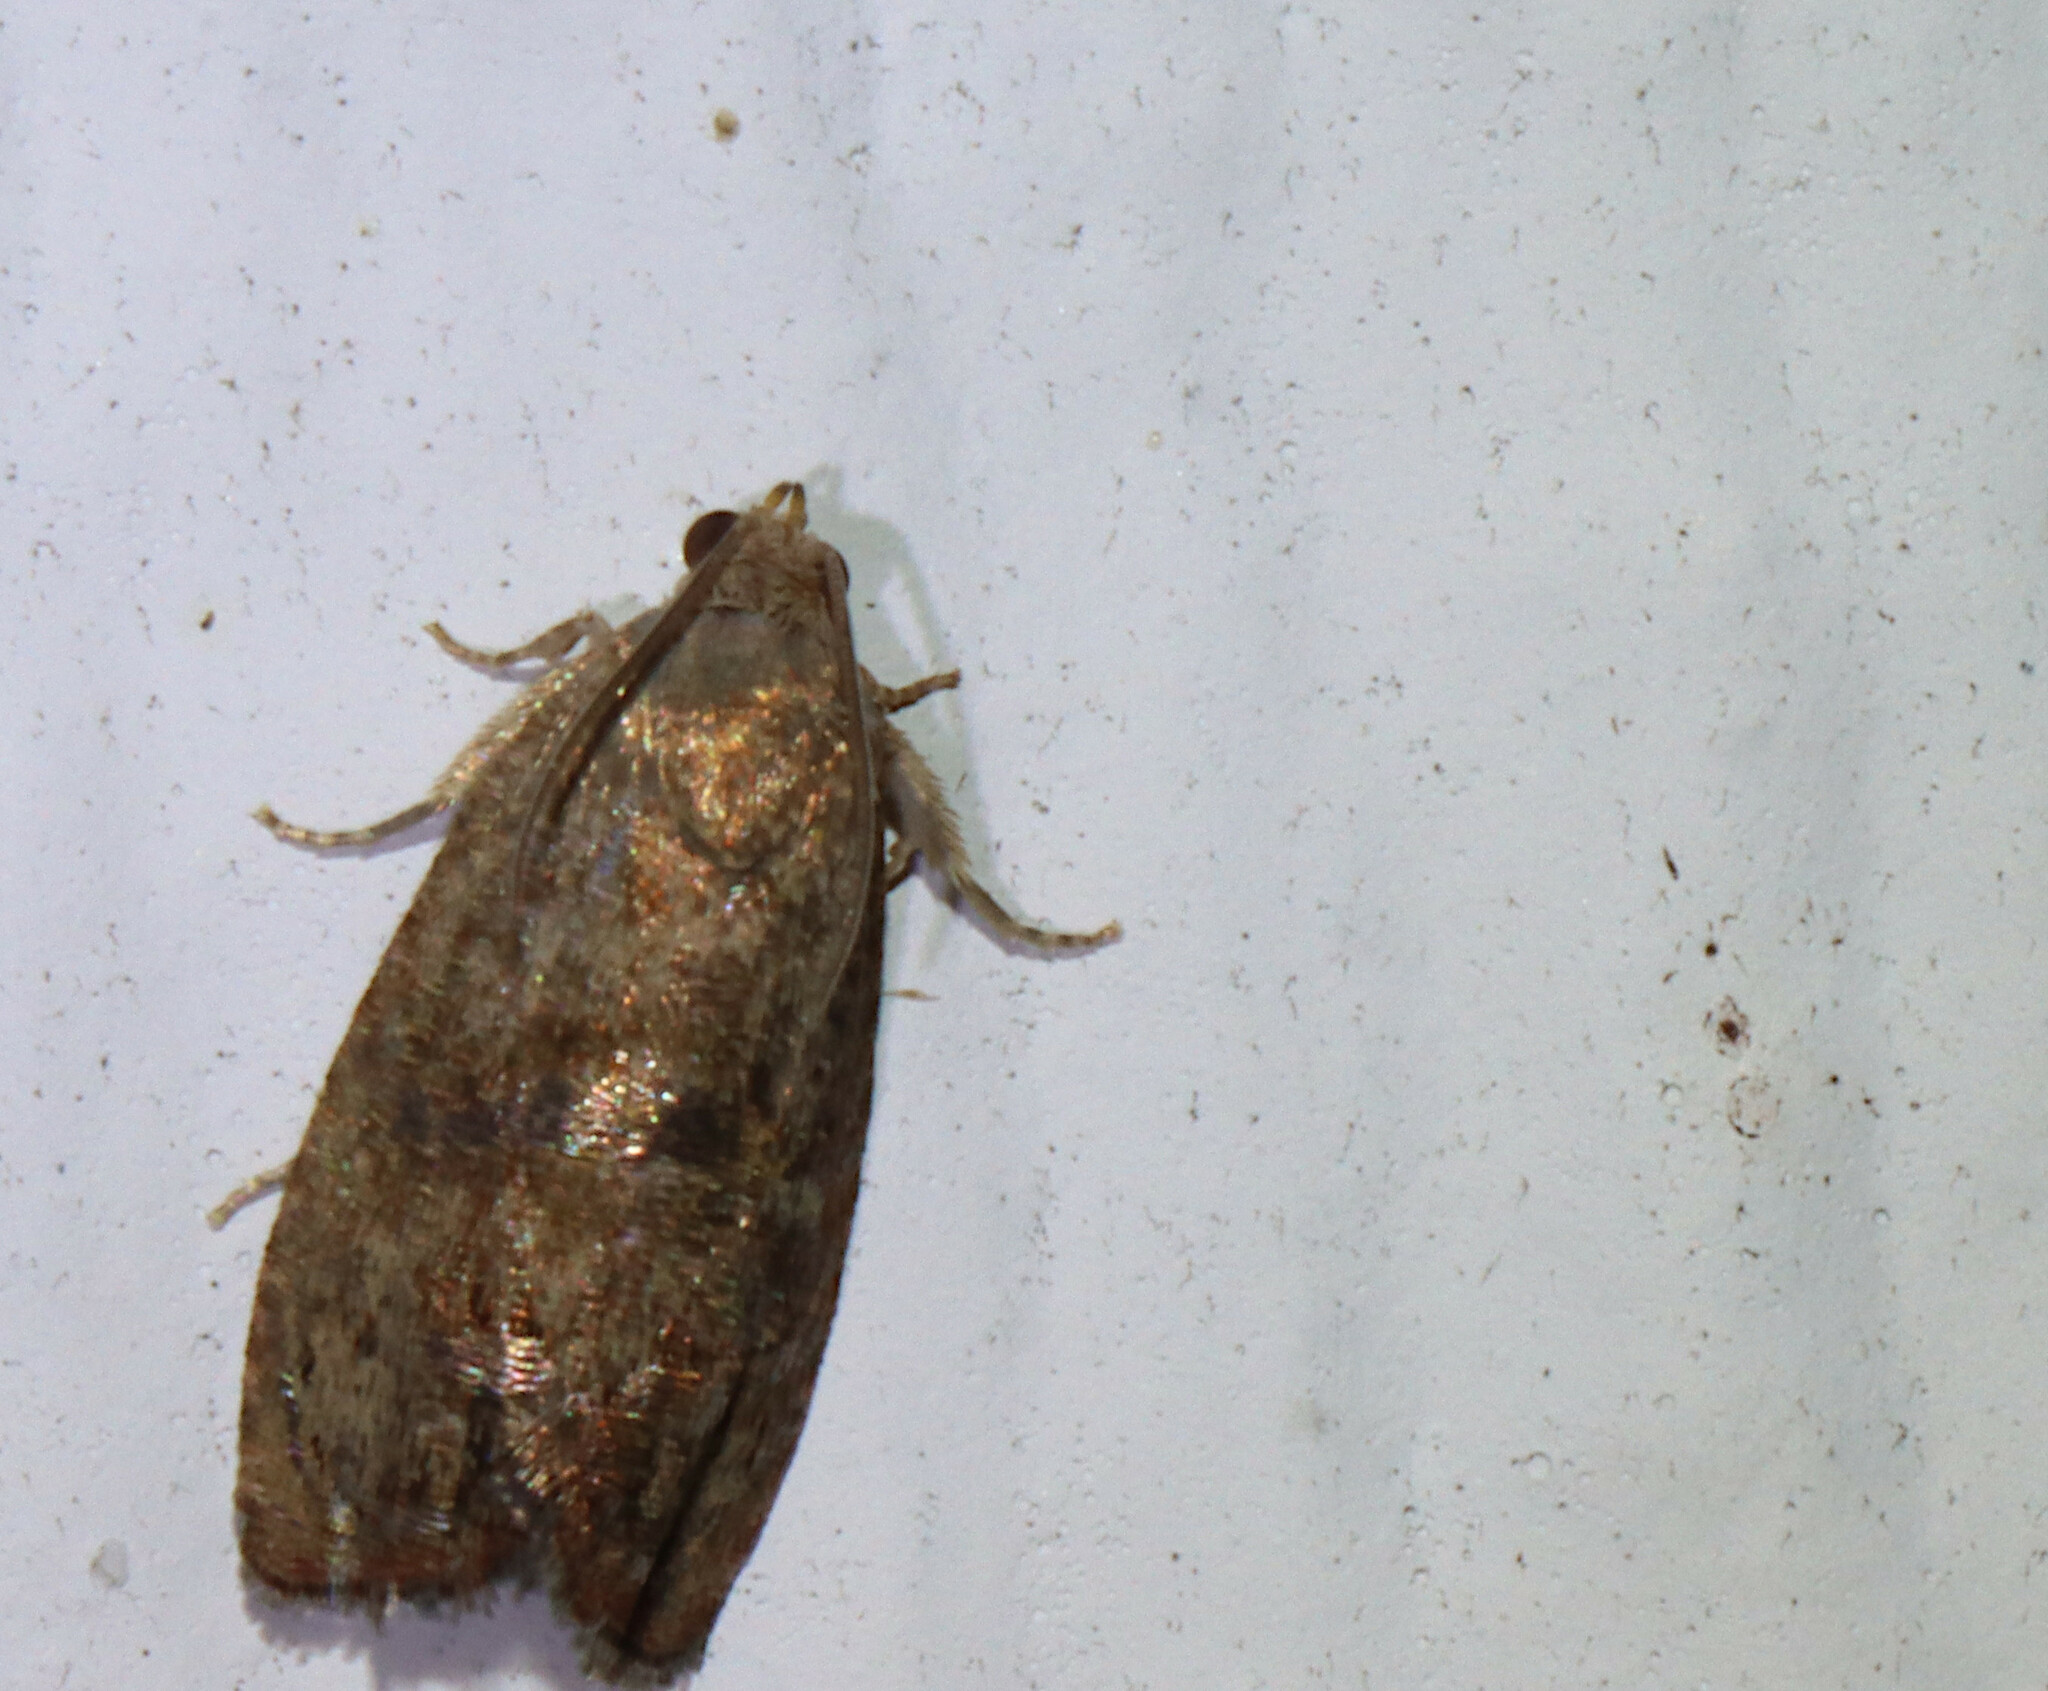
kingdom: Animalia
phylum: Arthropoda
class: Insecta
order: Lepidoptera
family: Tortricidae
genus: Cydia
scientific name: Cydia latiferreana
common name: Filbertworm moth
